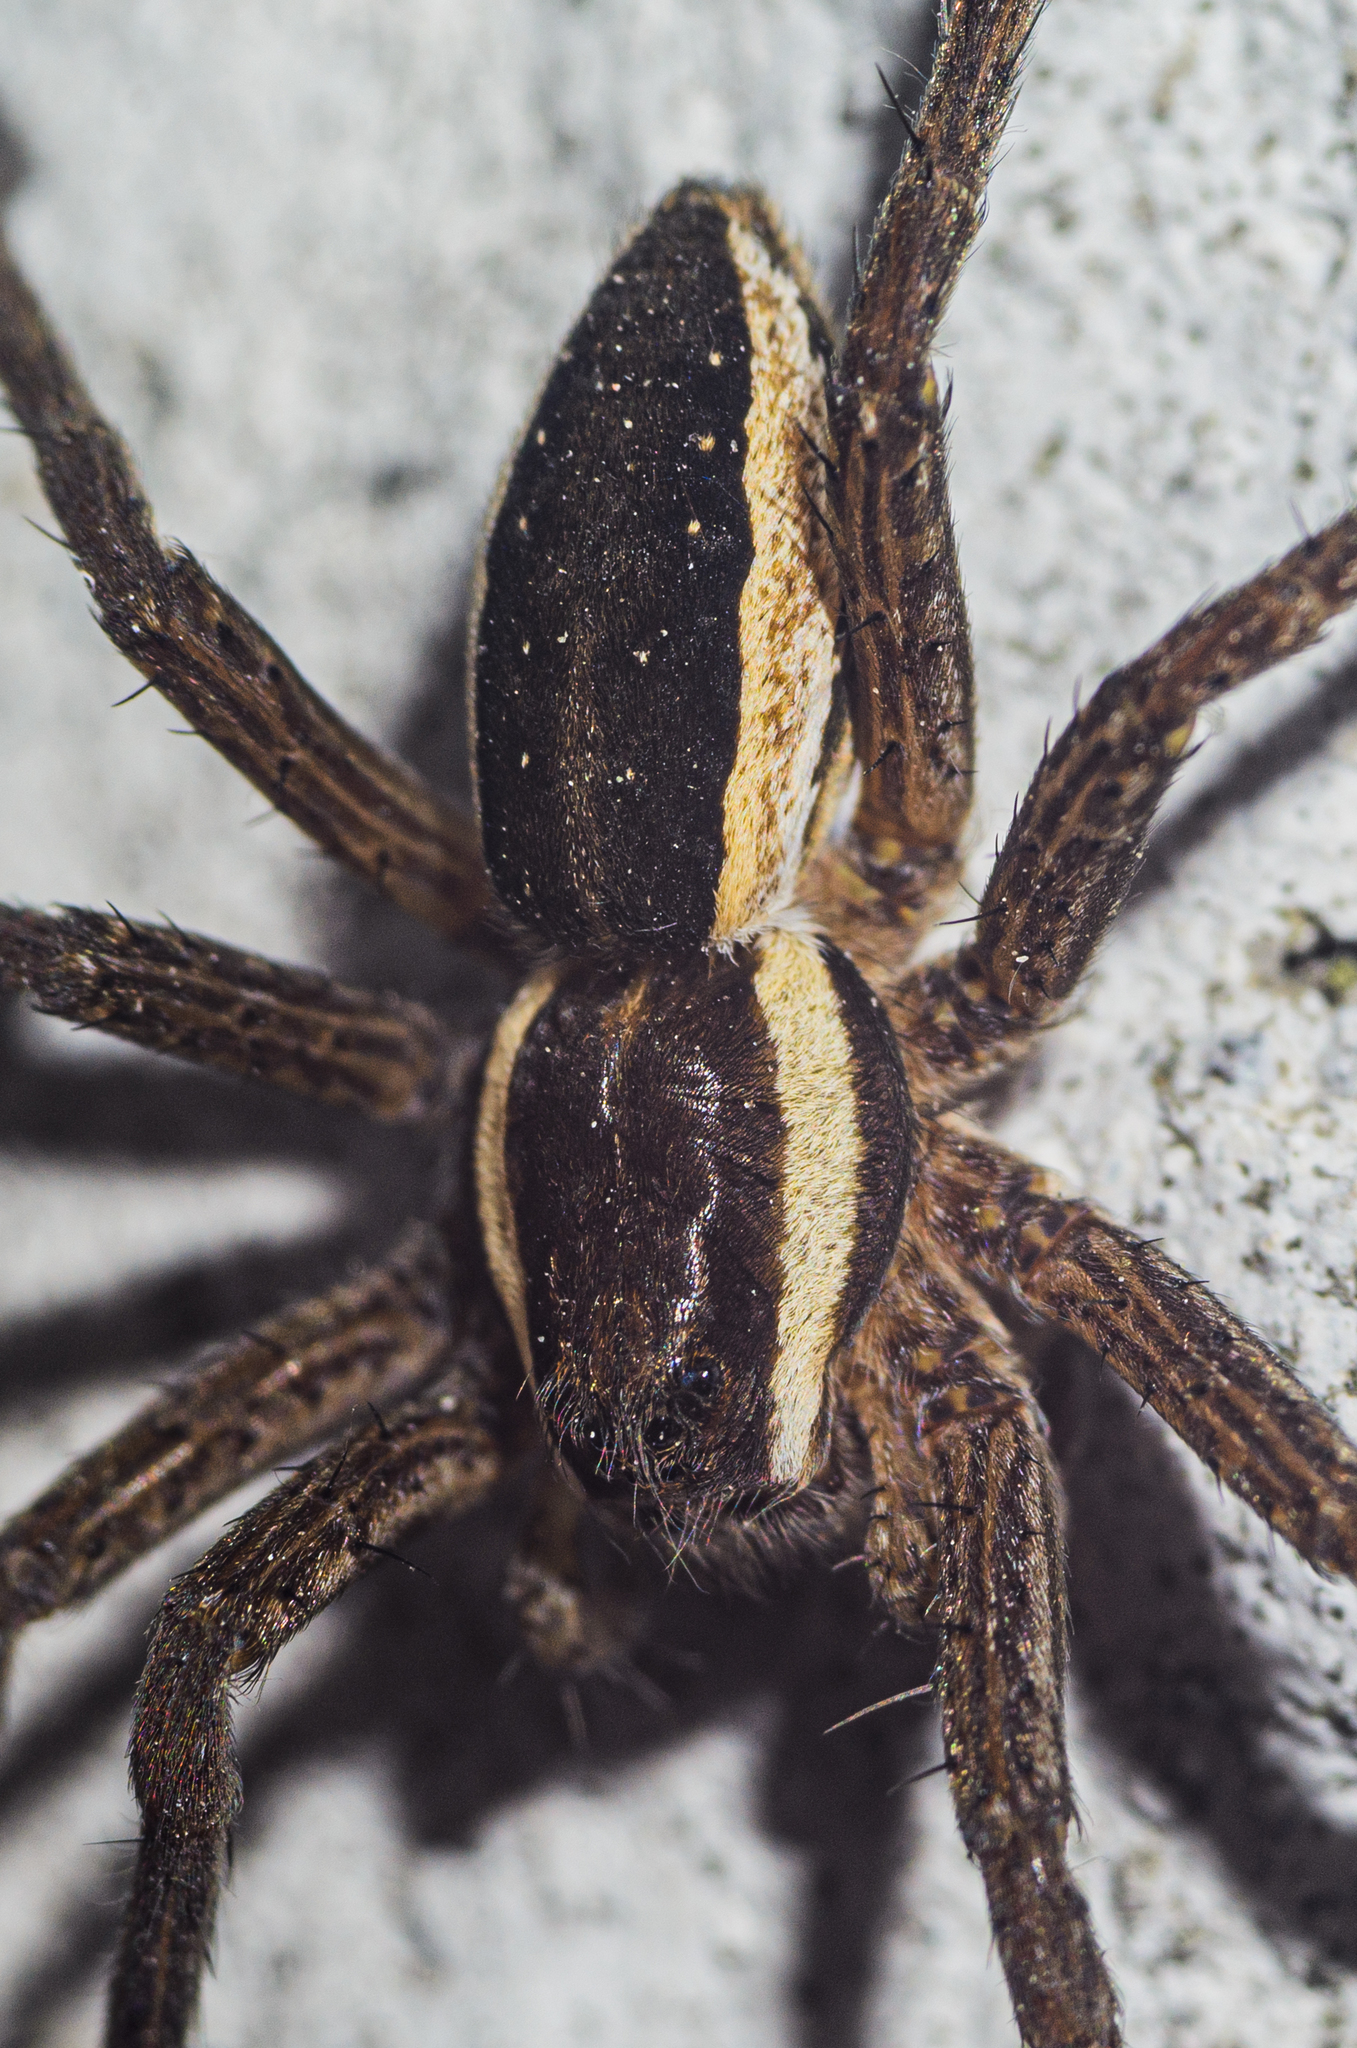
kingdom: Animalia
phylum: Arthropoda
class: Arachnida
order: Araneae
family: Pisauridae
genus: Dolomedes
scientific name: Dolomedes
